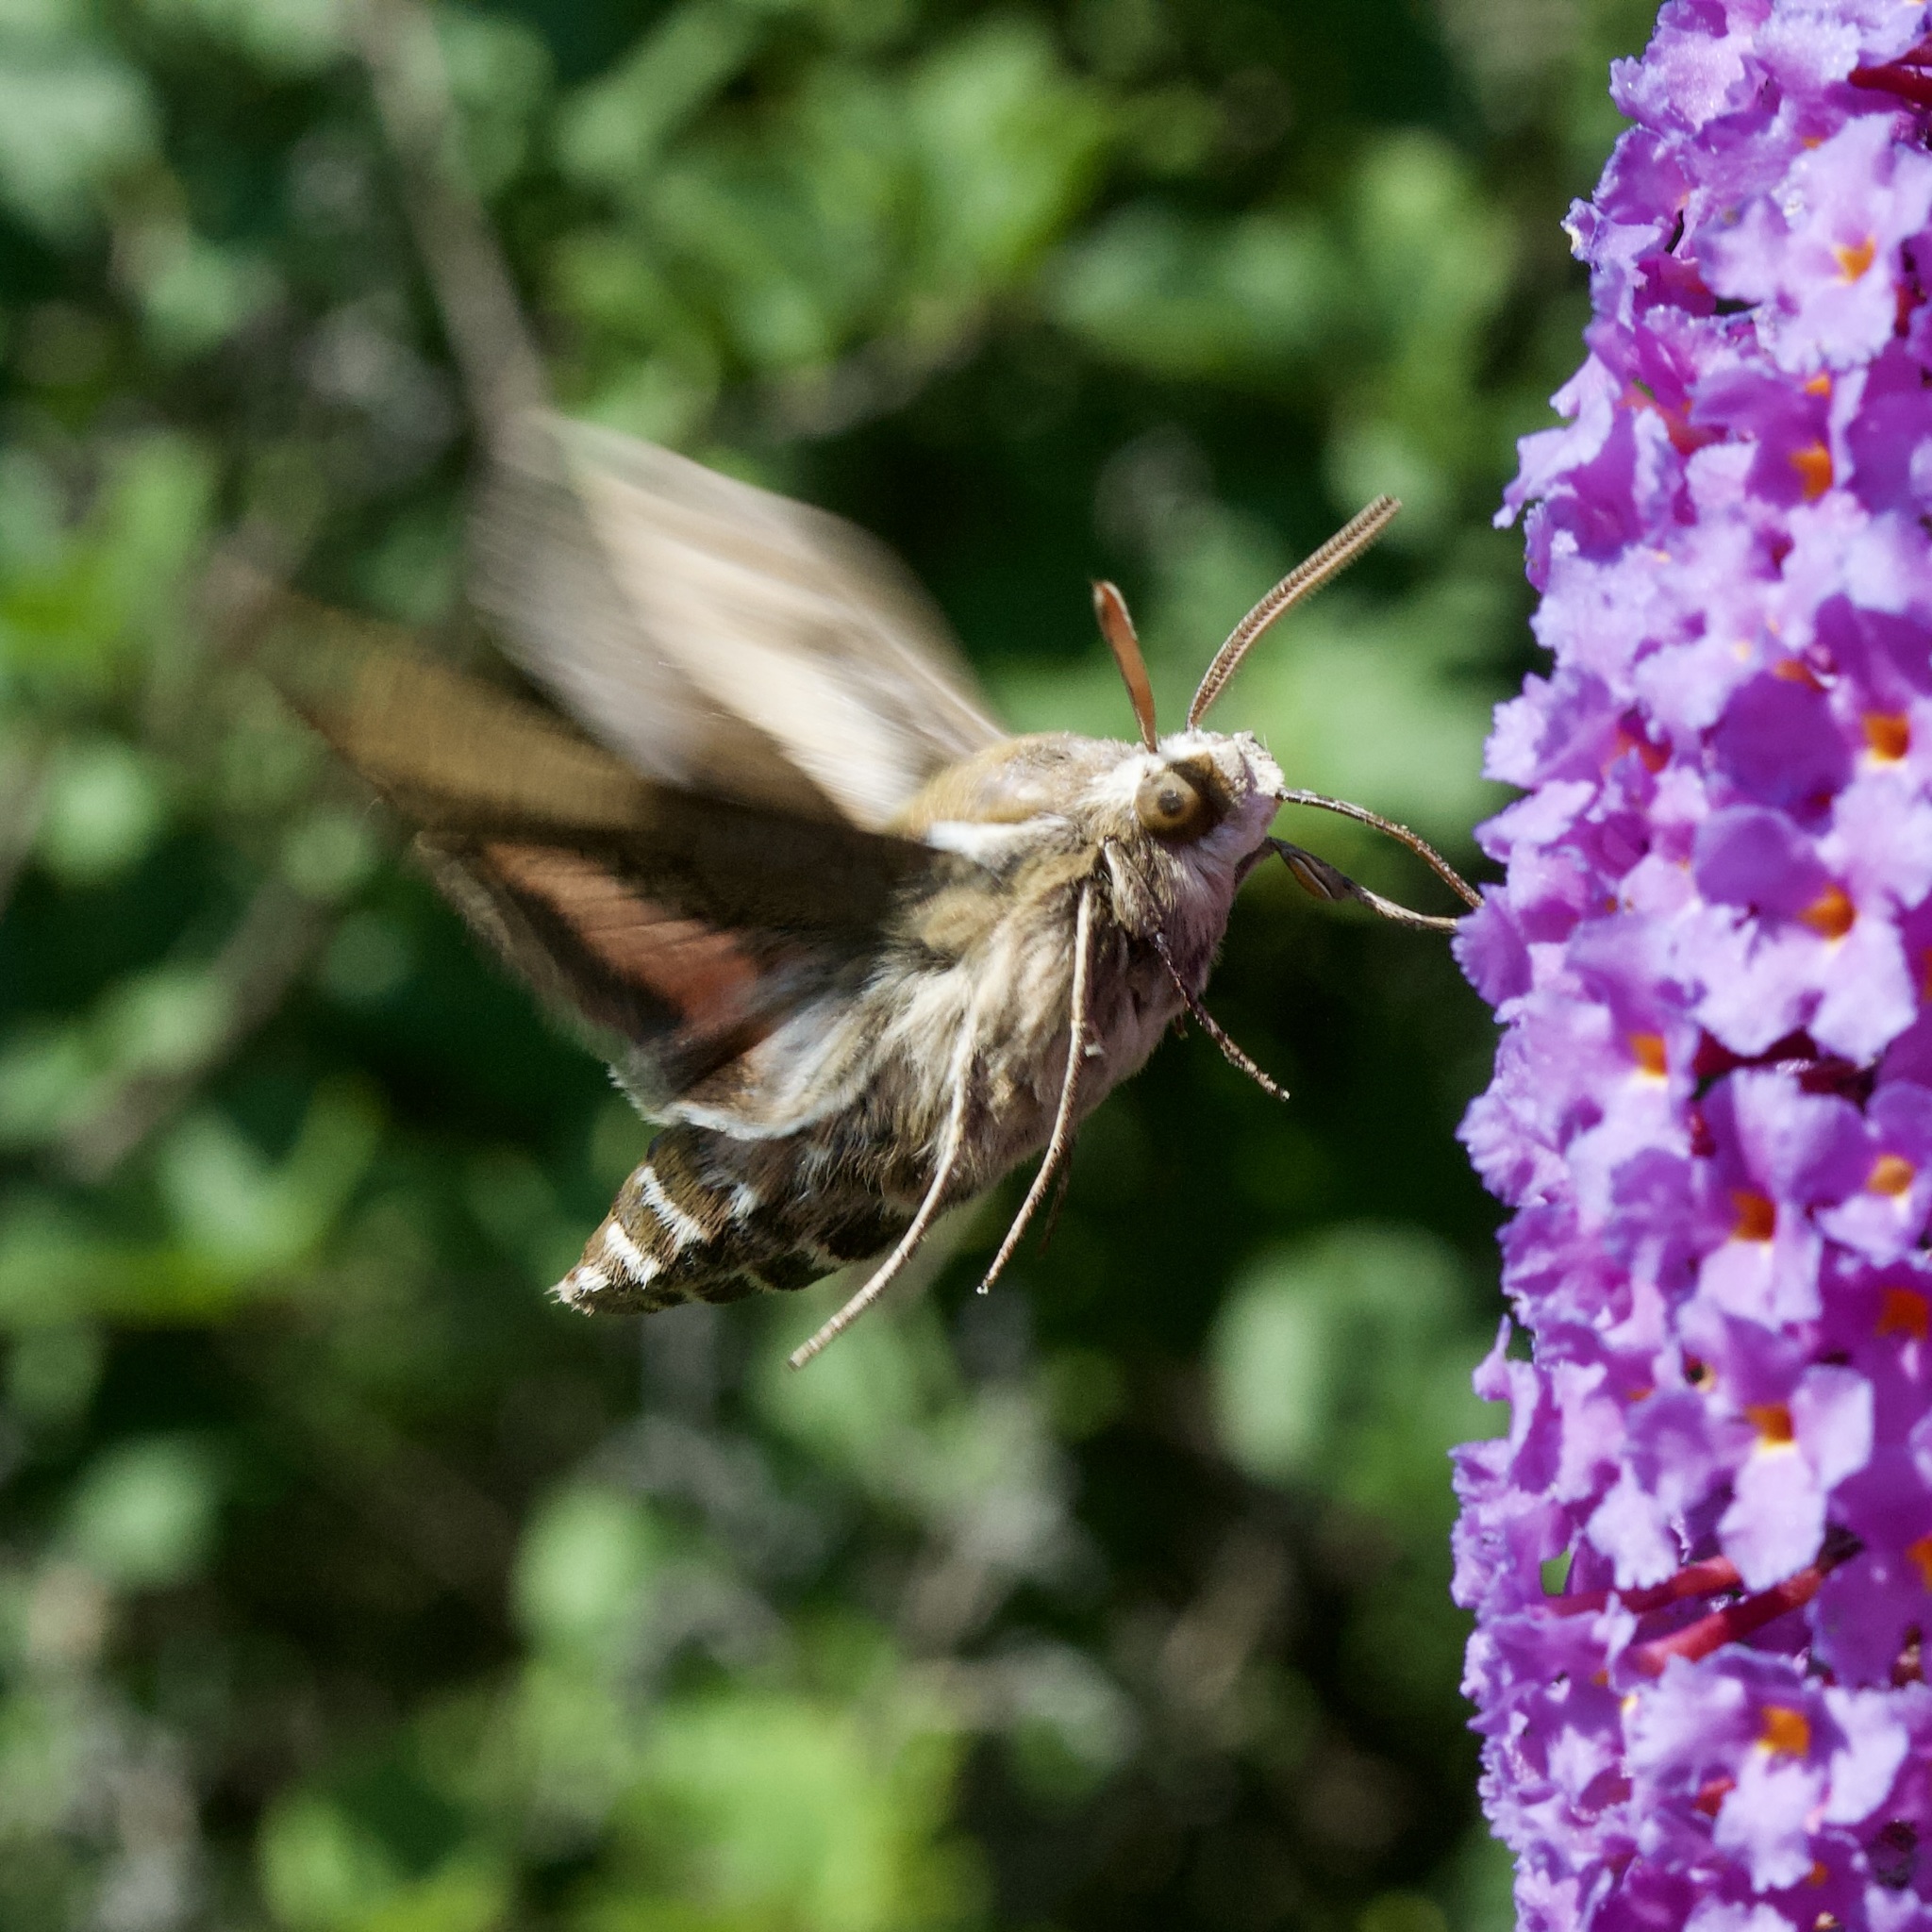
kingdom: Animalia
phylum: Arthropoda
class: Insecta
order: Lepidoptera
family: Sphingidae
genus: Hyles
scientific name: Hyles gallii
